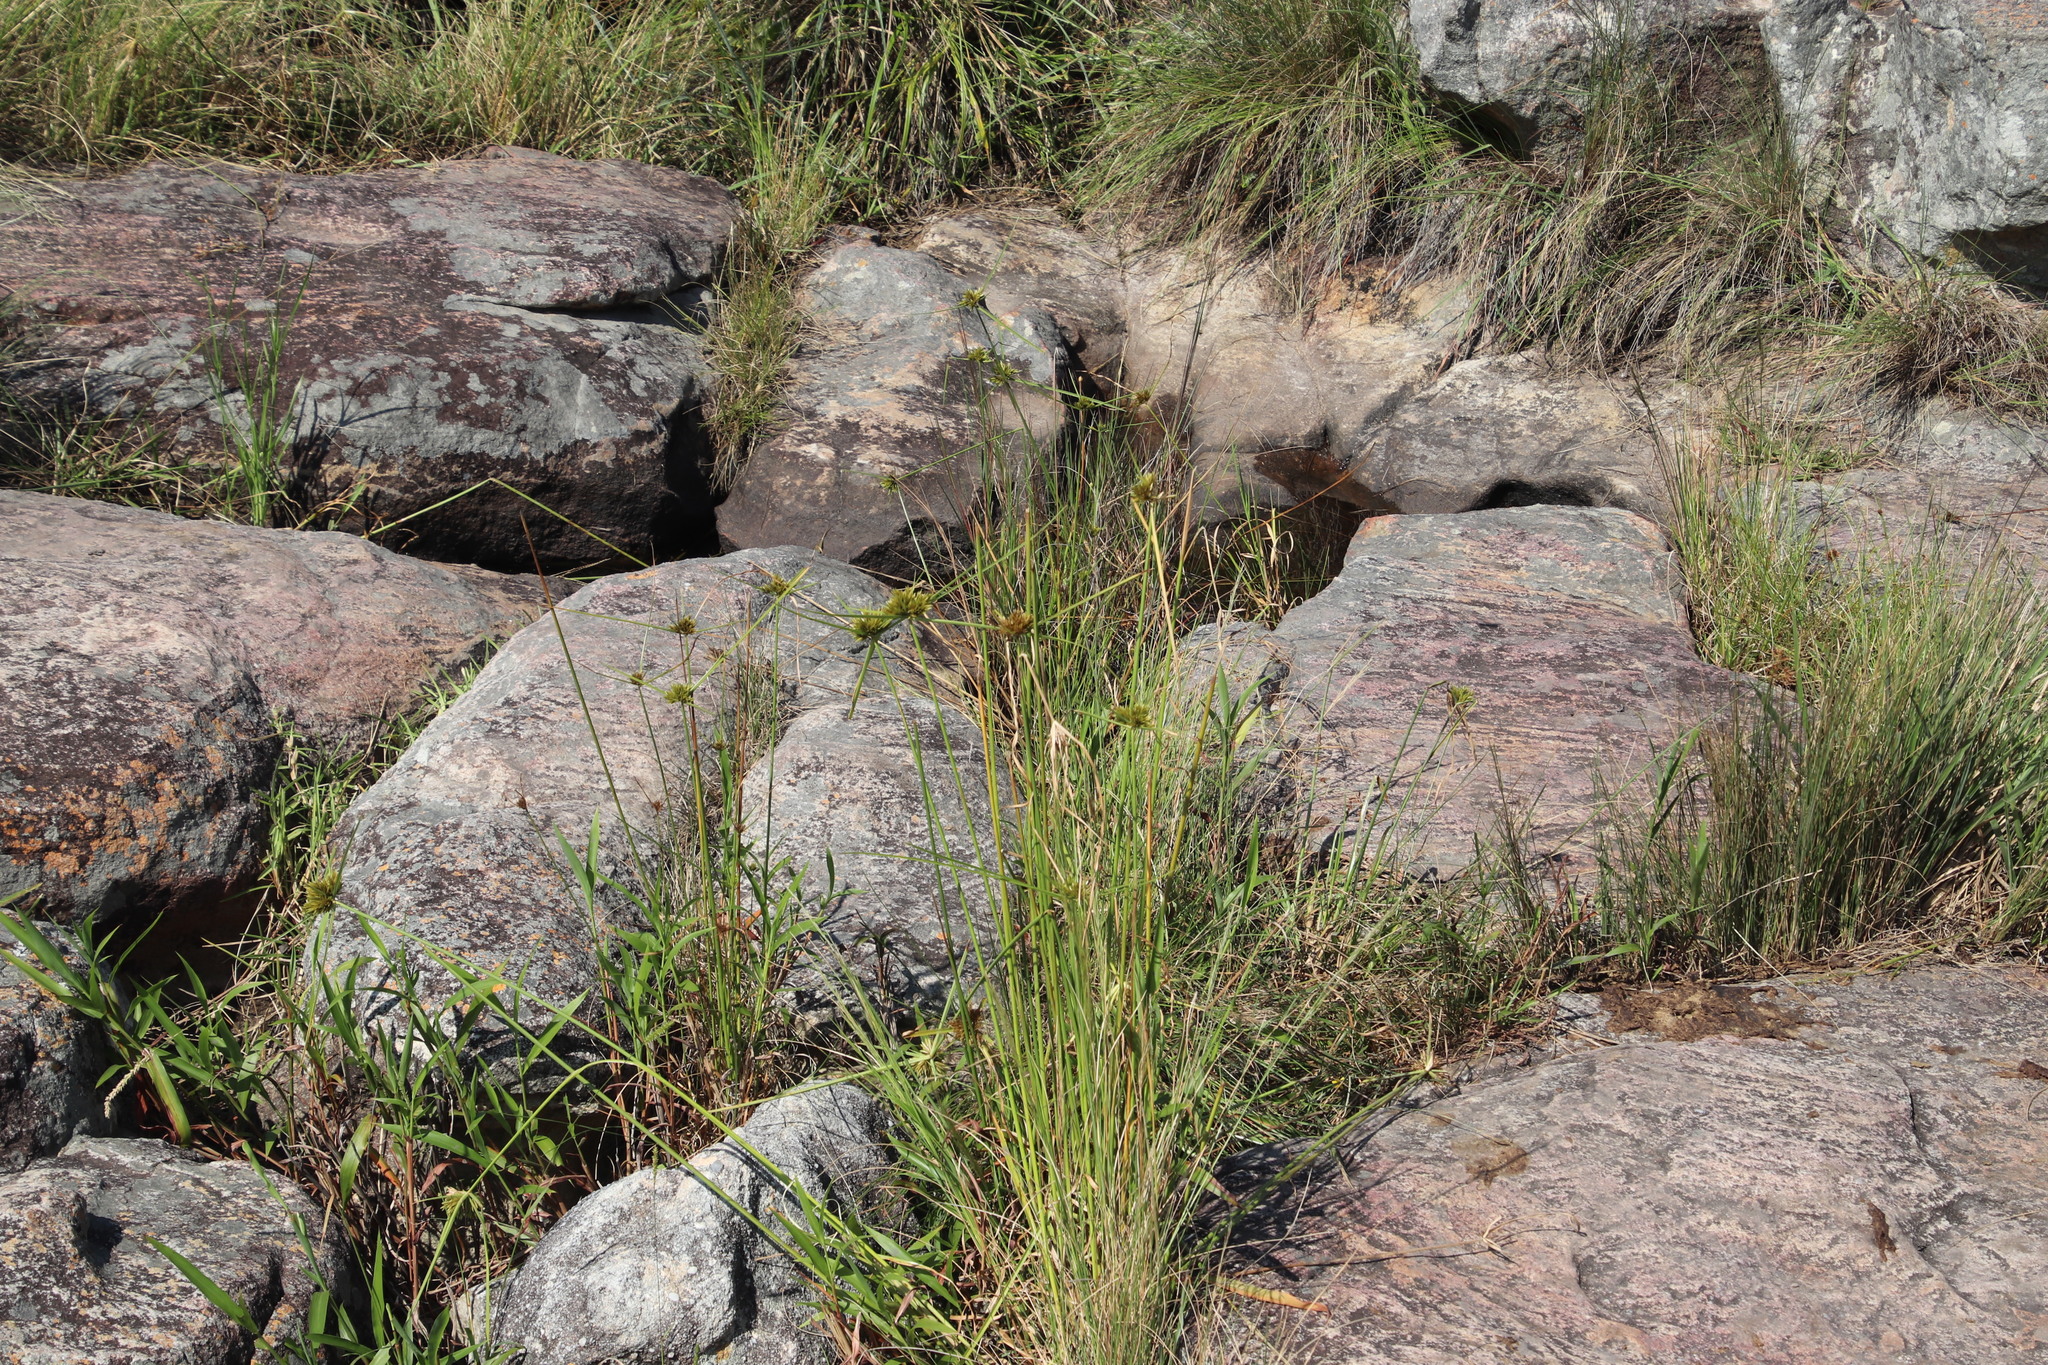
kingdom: Plantae
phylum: Tracheophyta
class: Liliopsida
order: Poales
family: Cyperaceae
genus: Cyperus
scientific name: Cyperus polystachyos
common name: Bunchy flat sedge
